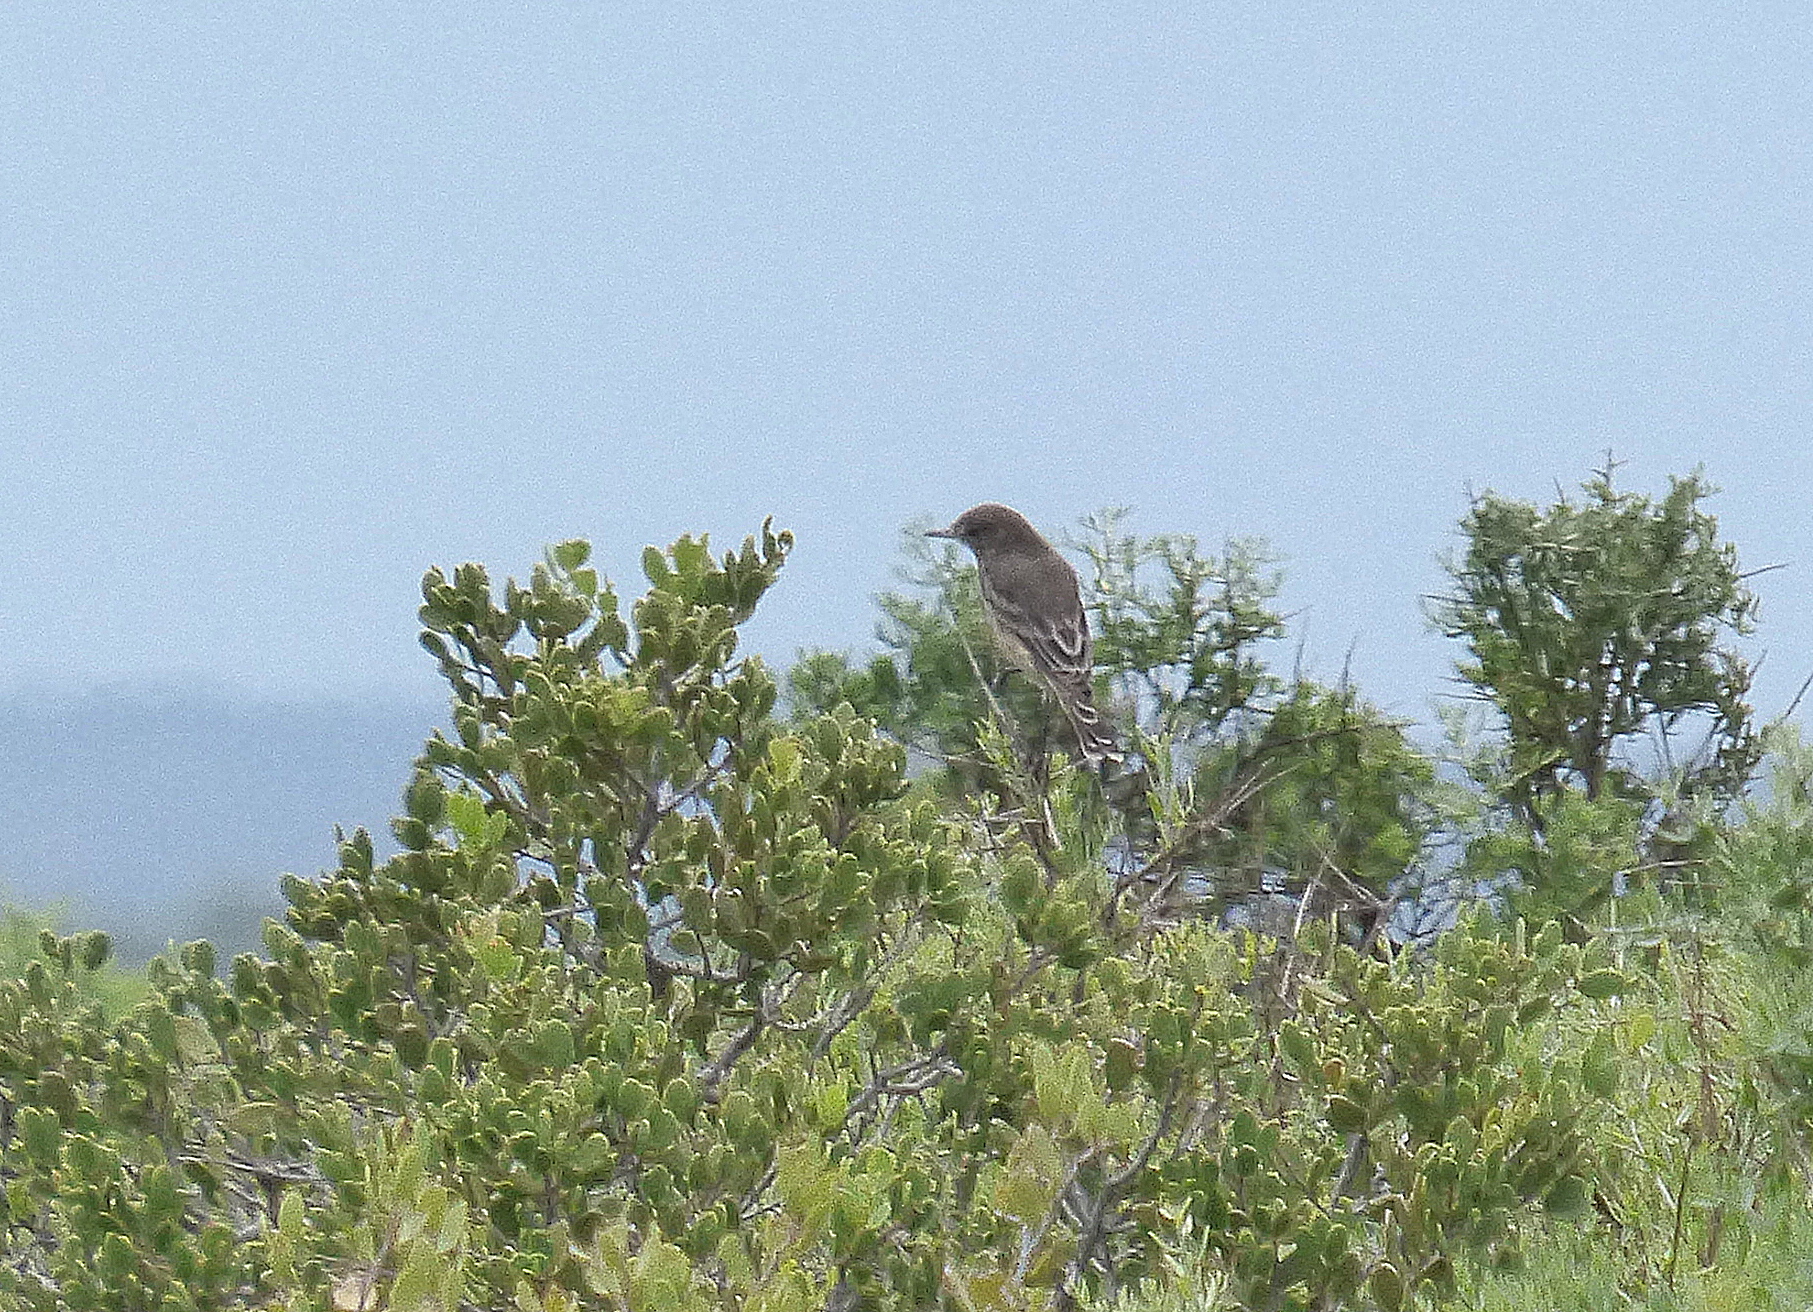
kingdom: Animalia
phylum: Chordata
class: Aves
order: Passeriformes
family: Tyrannidae
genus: Agriornis
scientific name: Agriornis murinus
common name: Lesser shrike-tyrant
